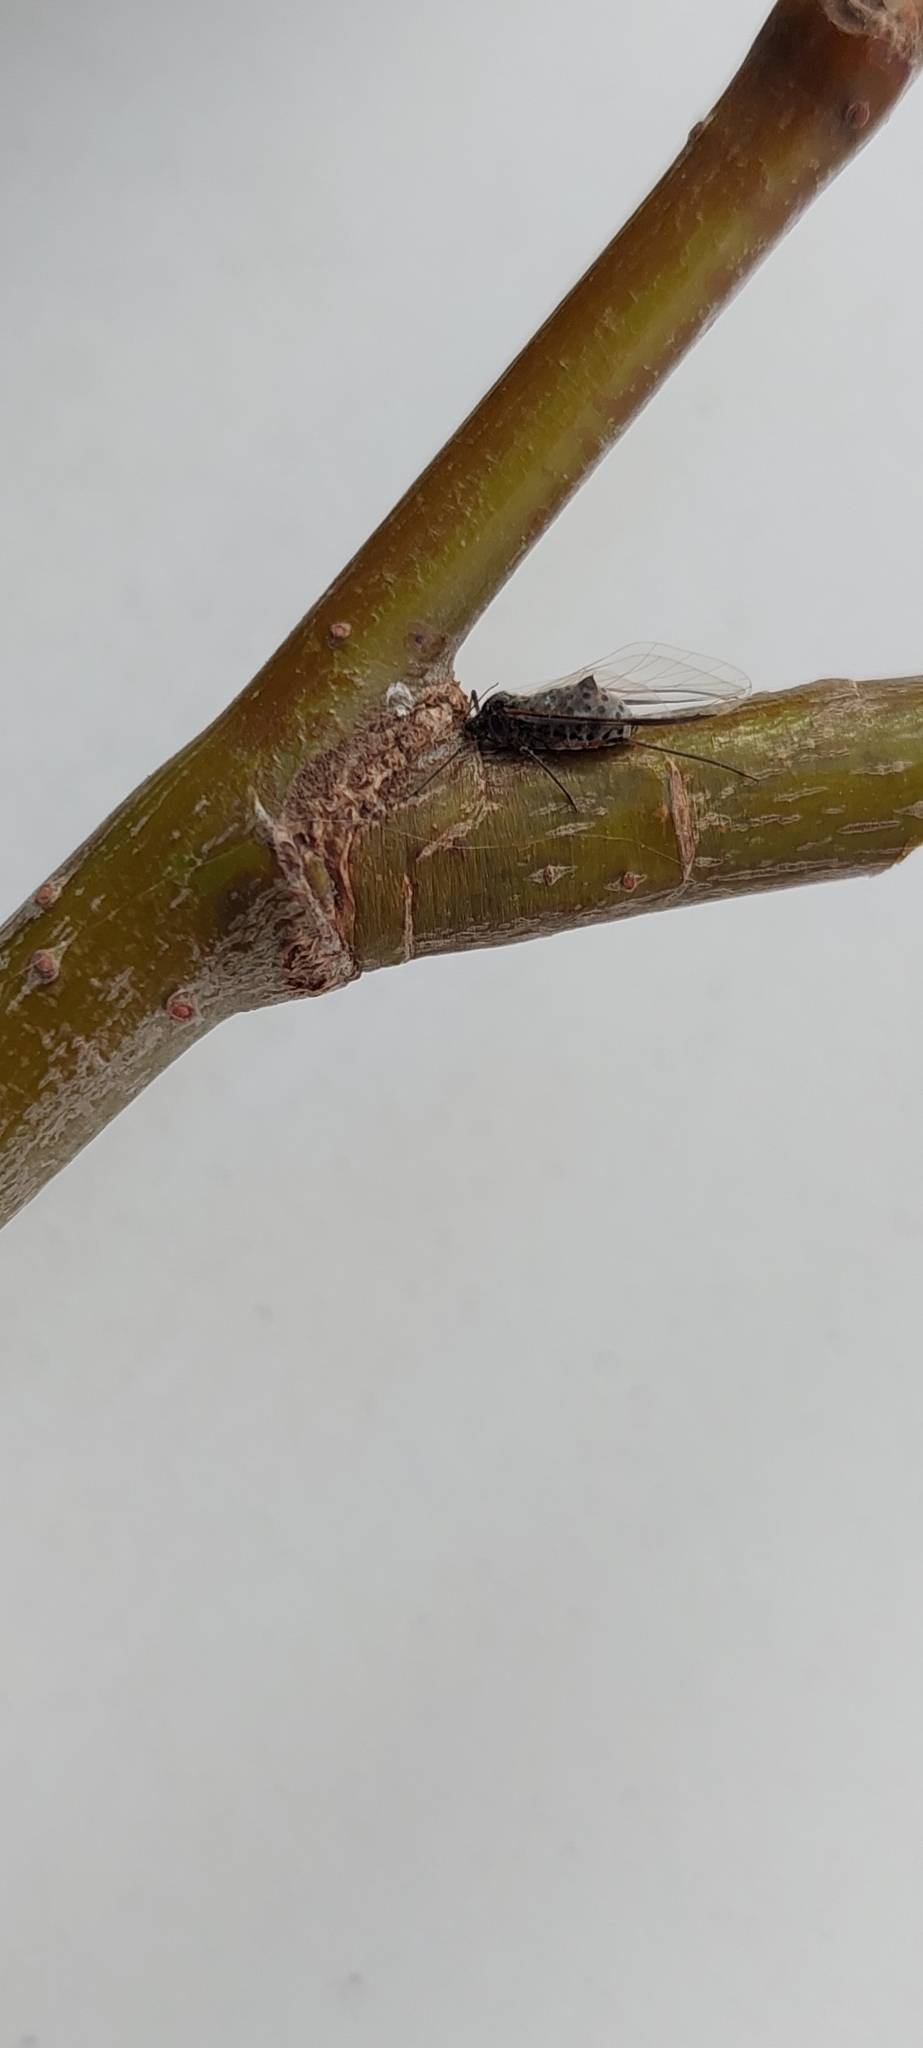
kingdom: Animalia
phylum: Arthropoda
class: Insecta
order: Hemiptera
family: Aphididae
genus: Tuberolachnus
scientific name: Tuberolachnus salignus
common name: Giant willow aphid
